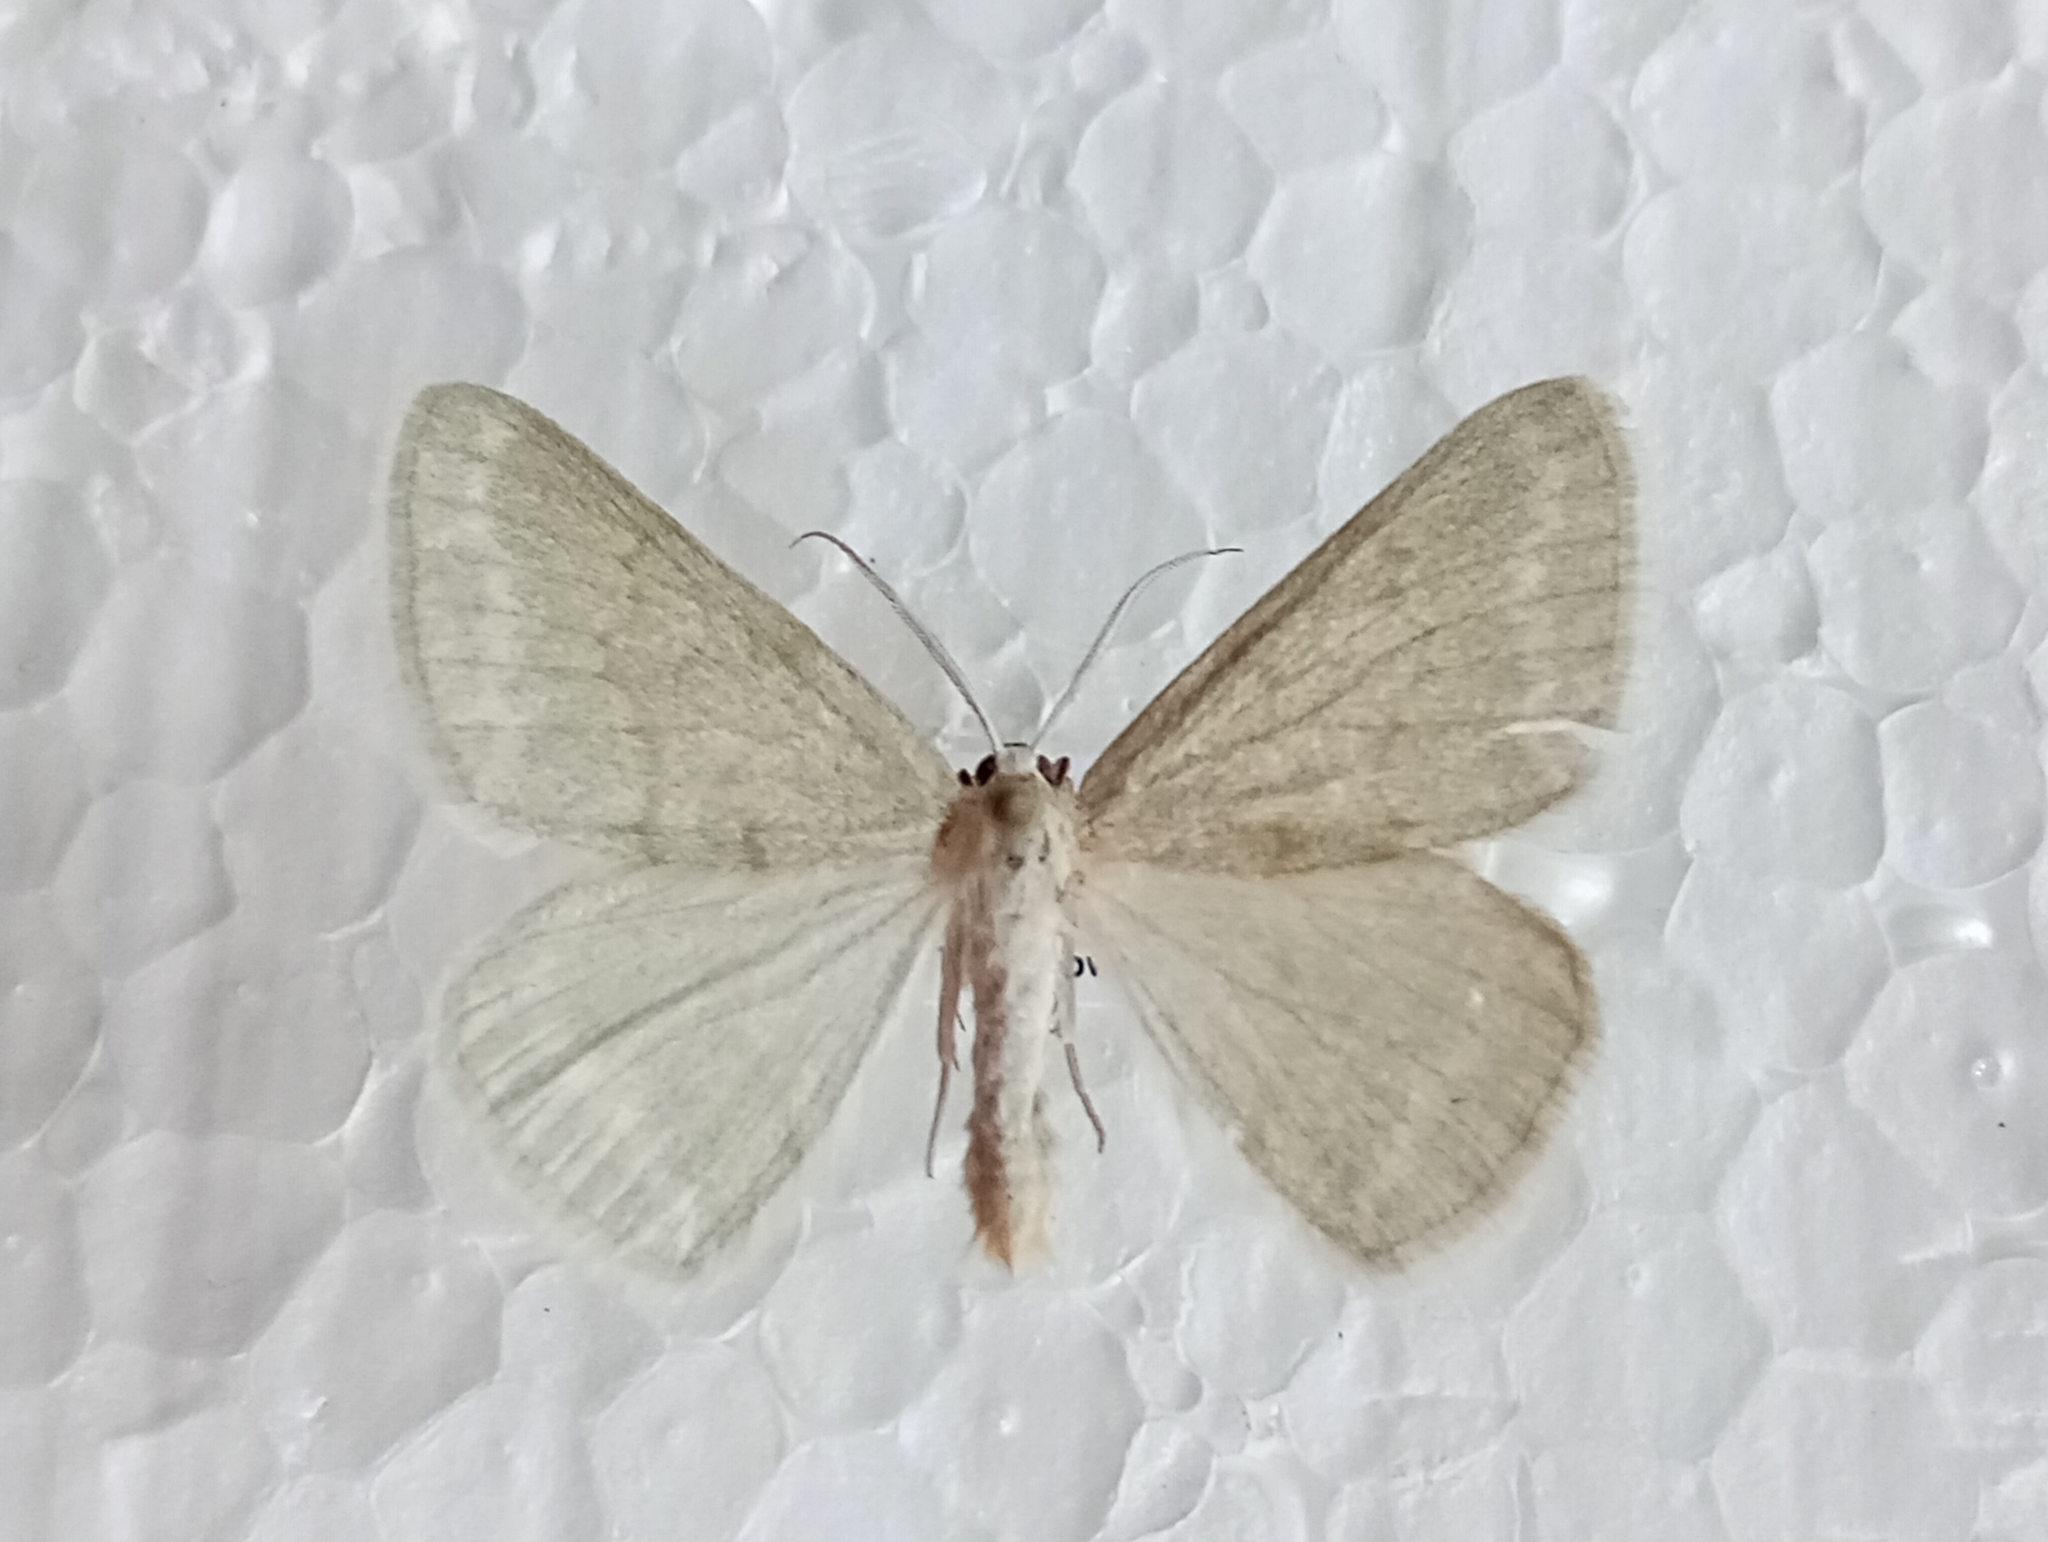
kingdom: Animalia
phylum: Arthropoda
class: Insecta
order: Lepidoptera
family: Geometridae
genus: Pseudoterpna
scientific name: Pseudoterpna pruinata
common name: Grass emerald
